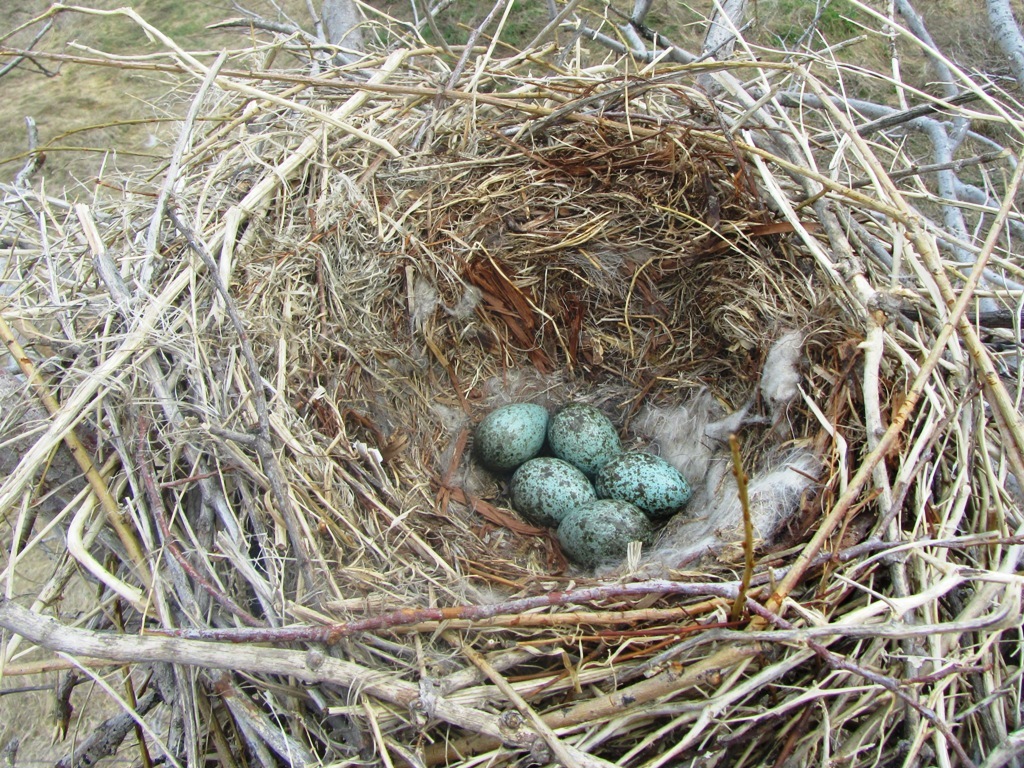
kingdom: Animalia
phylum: Chordata
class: Aves
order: Passeriformes
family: Corvidae
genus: Corvus
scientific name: Corvus cornix
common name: Hooded crow
